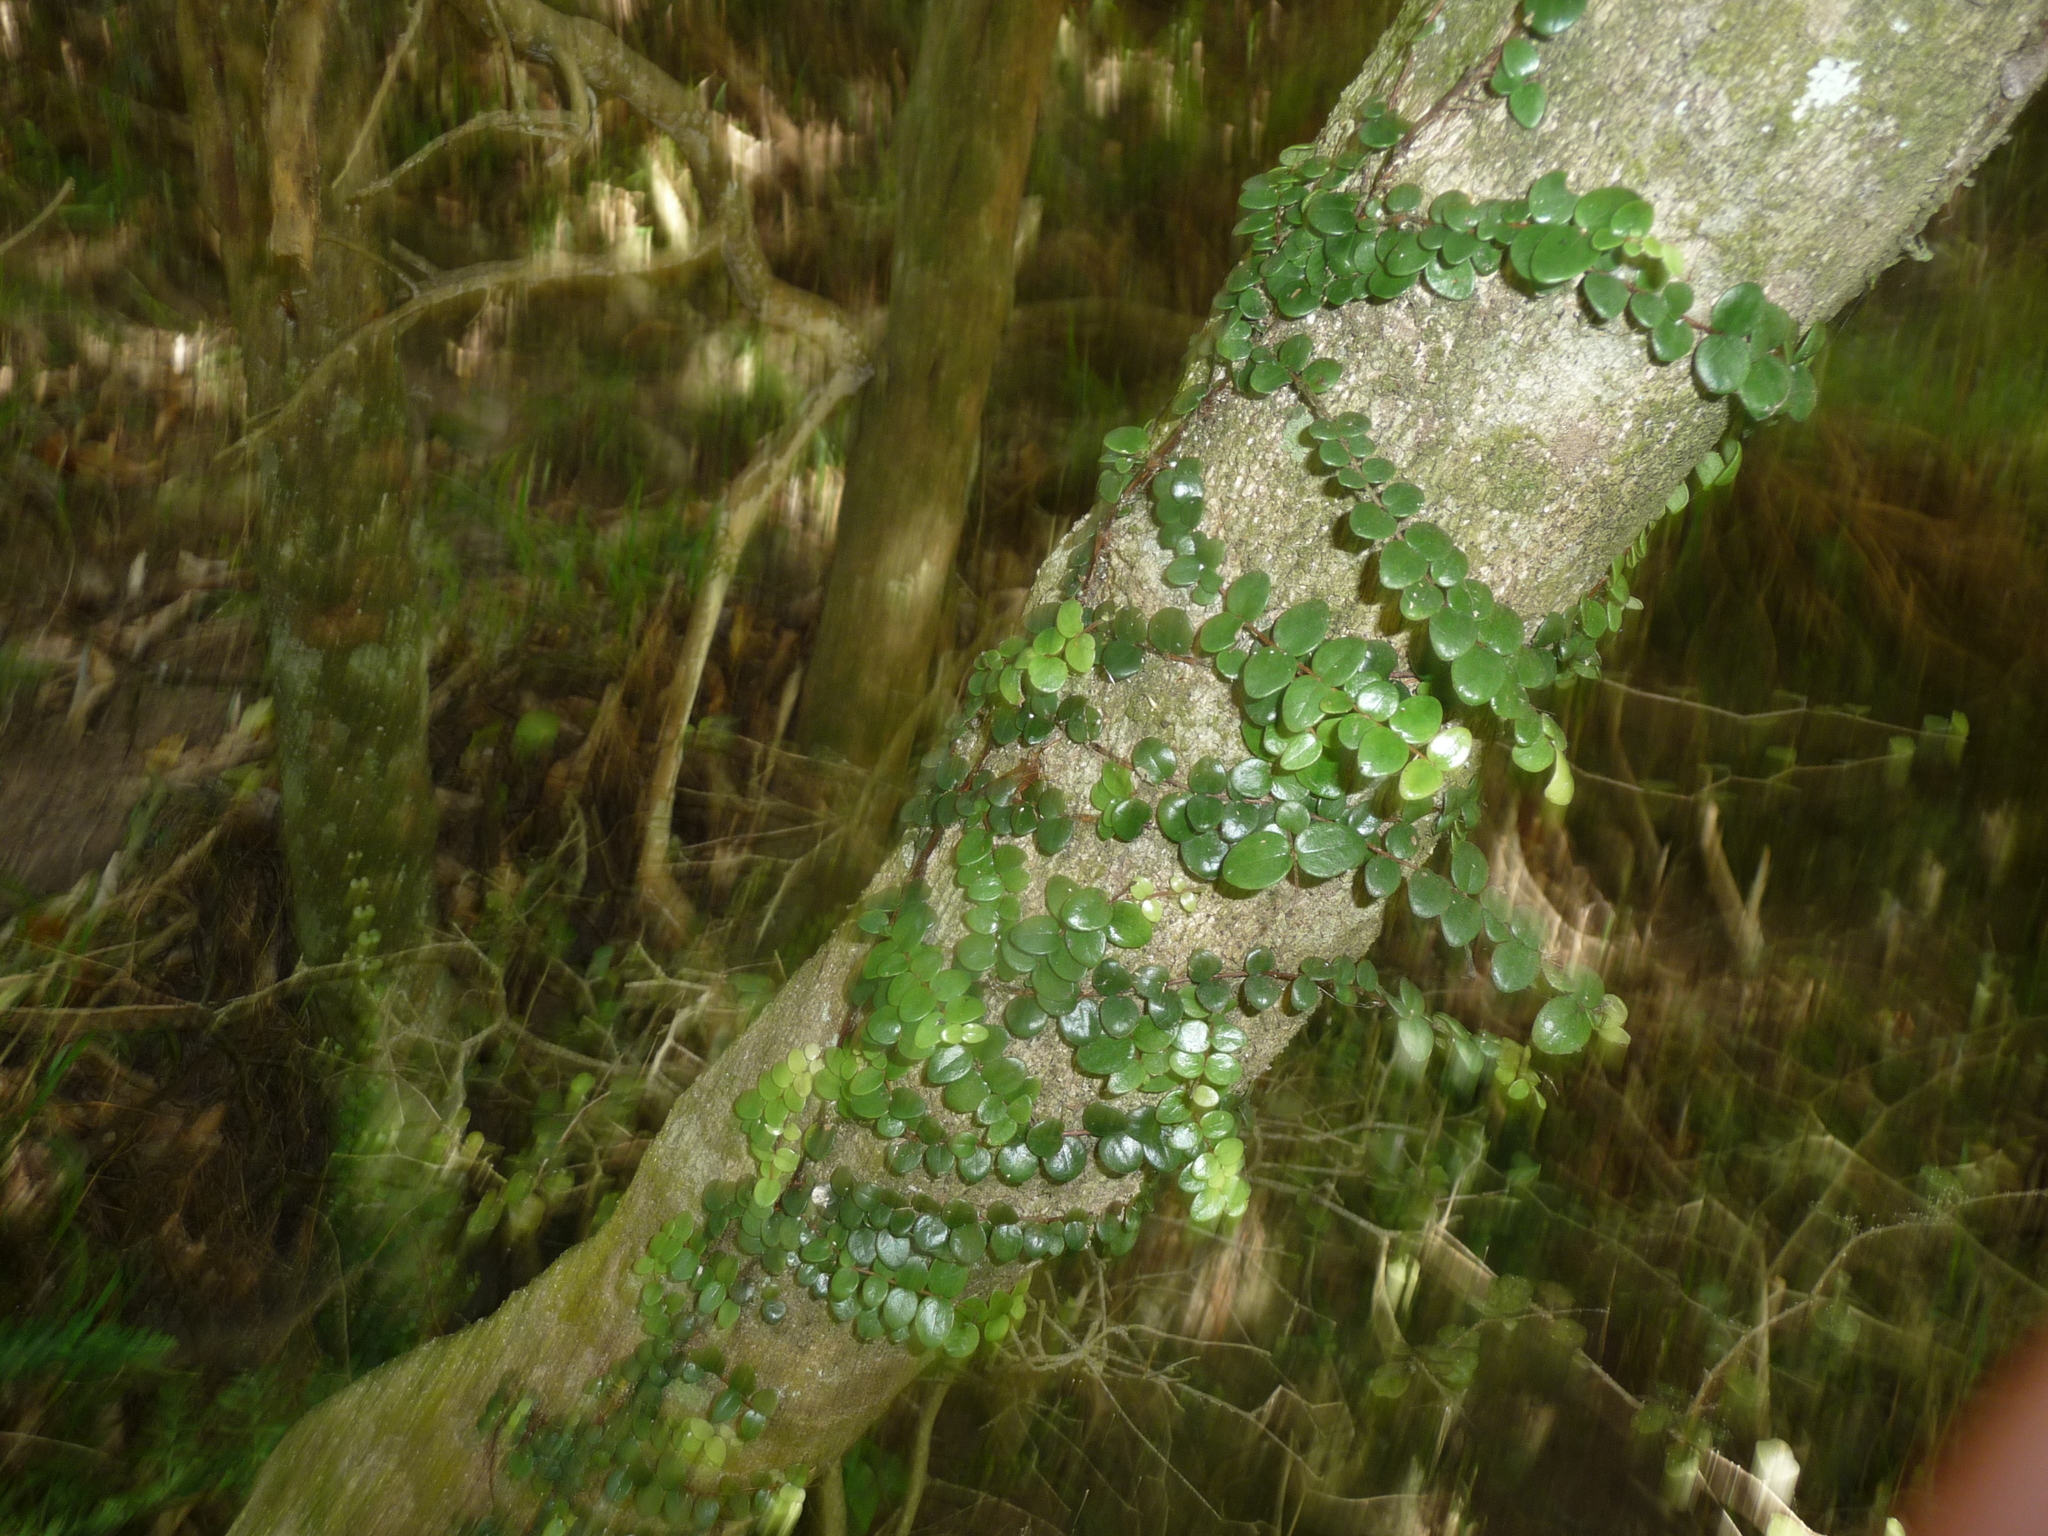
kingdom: Plantae
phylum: Tracheophyta
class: Magnoliopsida
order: Myrtales
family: Myrtaceae
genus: Metrosideros
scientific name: Metrosideros perforata
